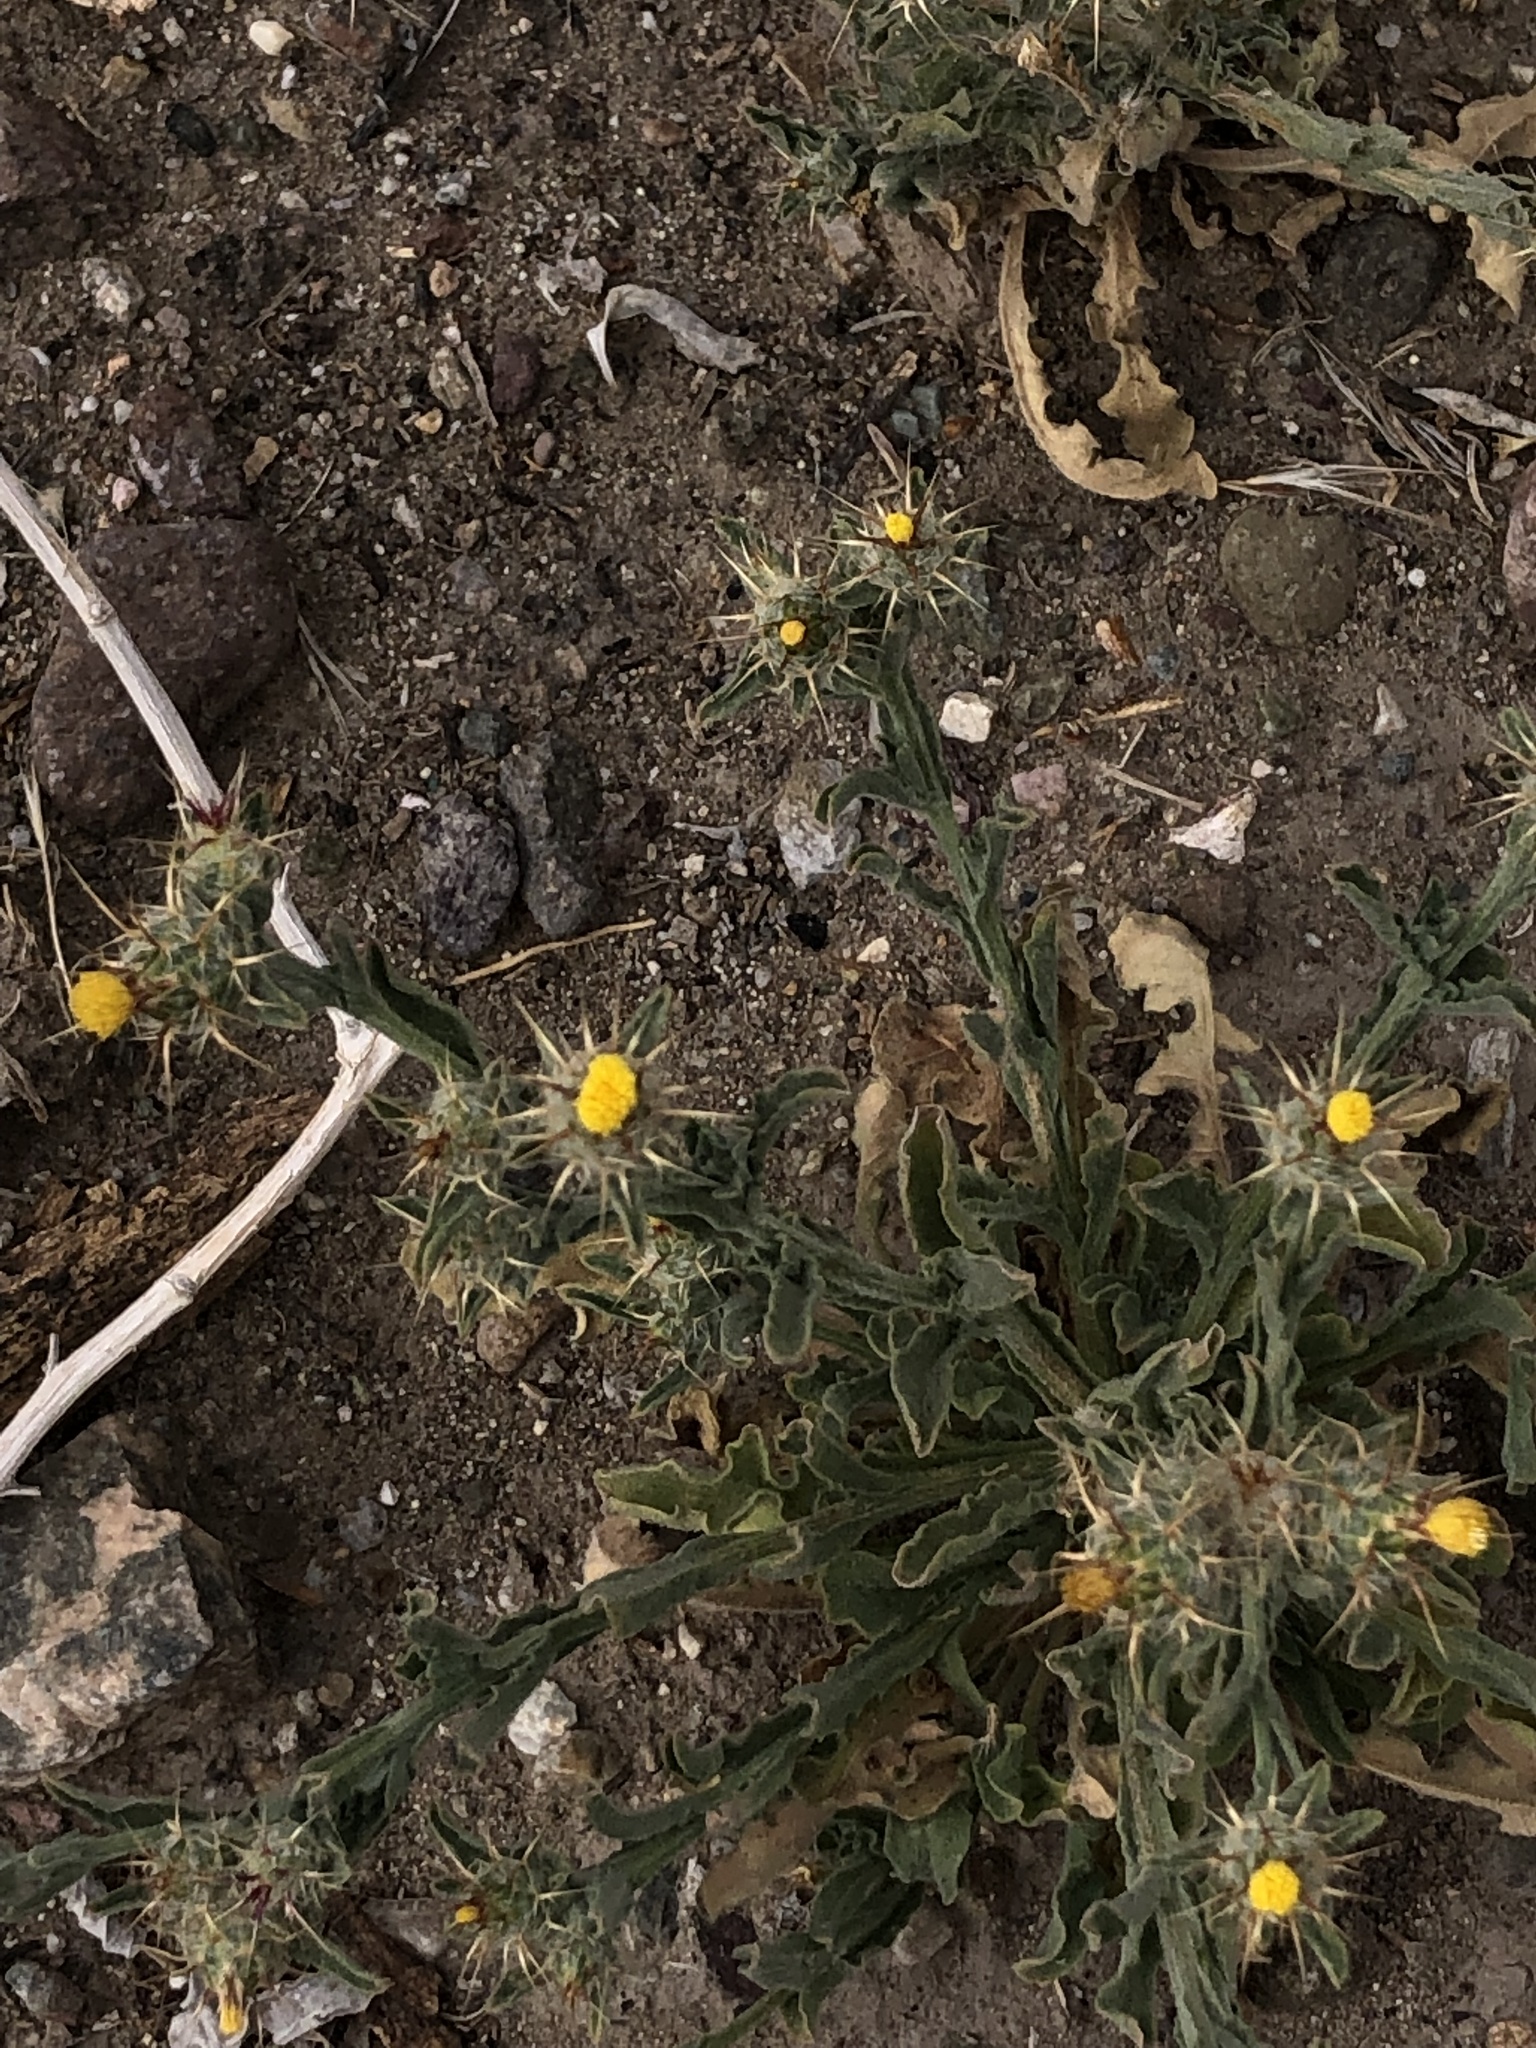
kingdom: Plantae
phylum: Tracheophyta
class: Magnoliopsida
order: Asterales
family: Asteraceae
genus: Centaurea
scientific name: Centaurea melitensis
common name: Maltese star-thistle
